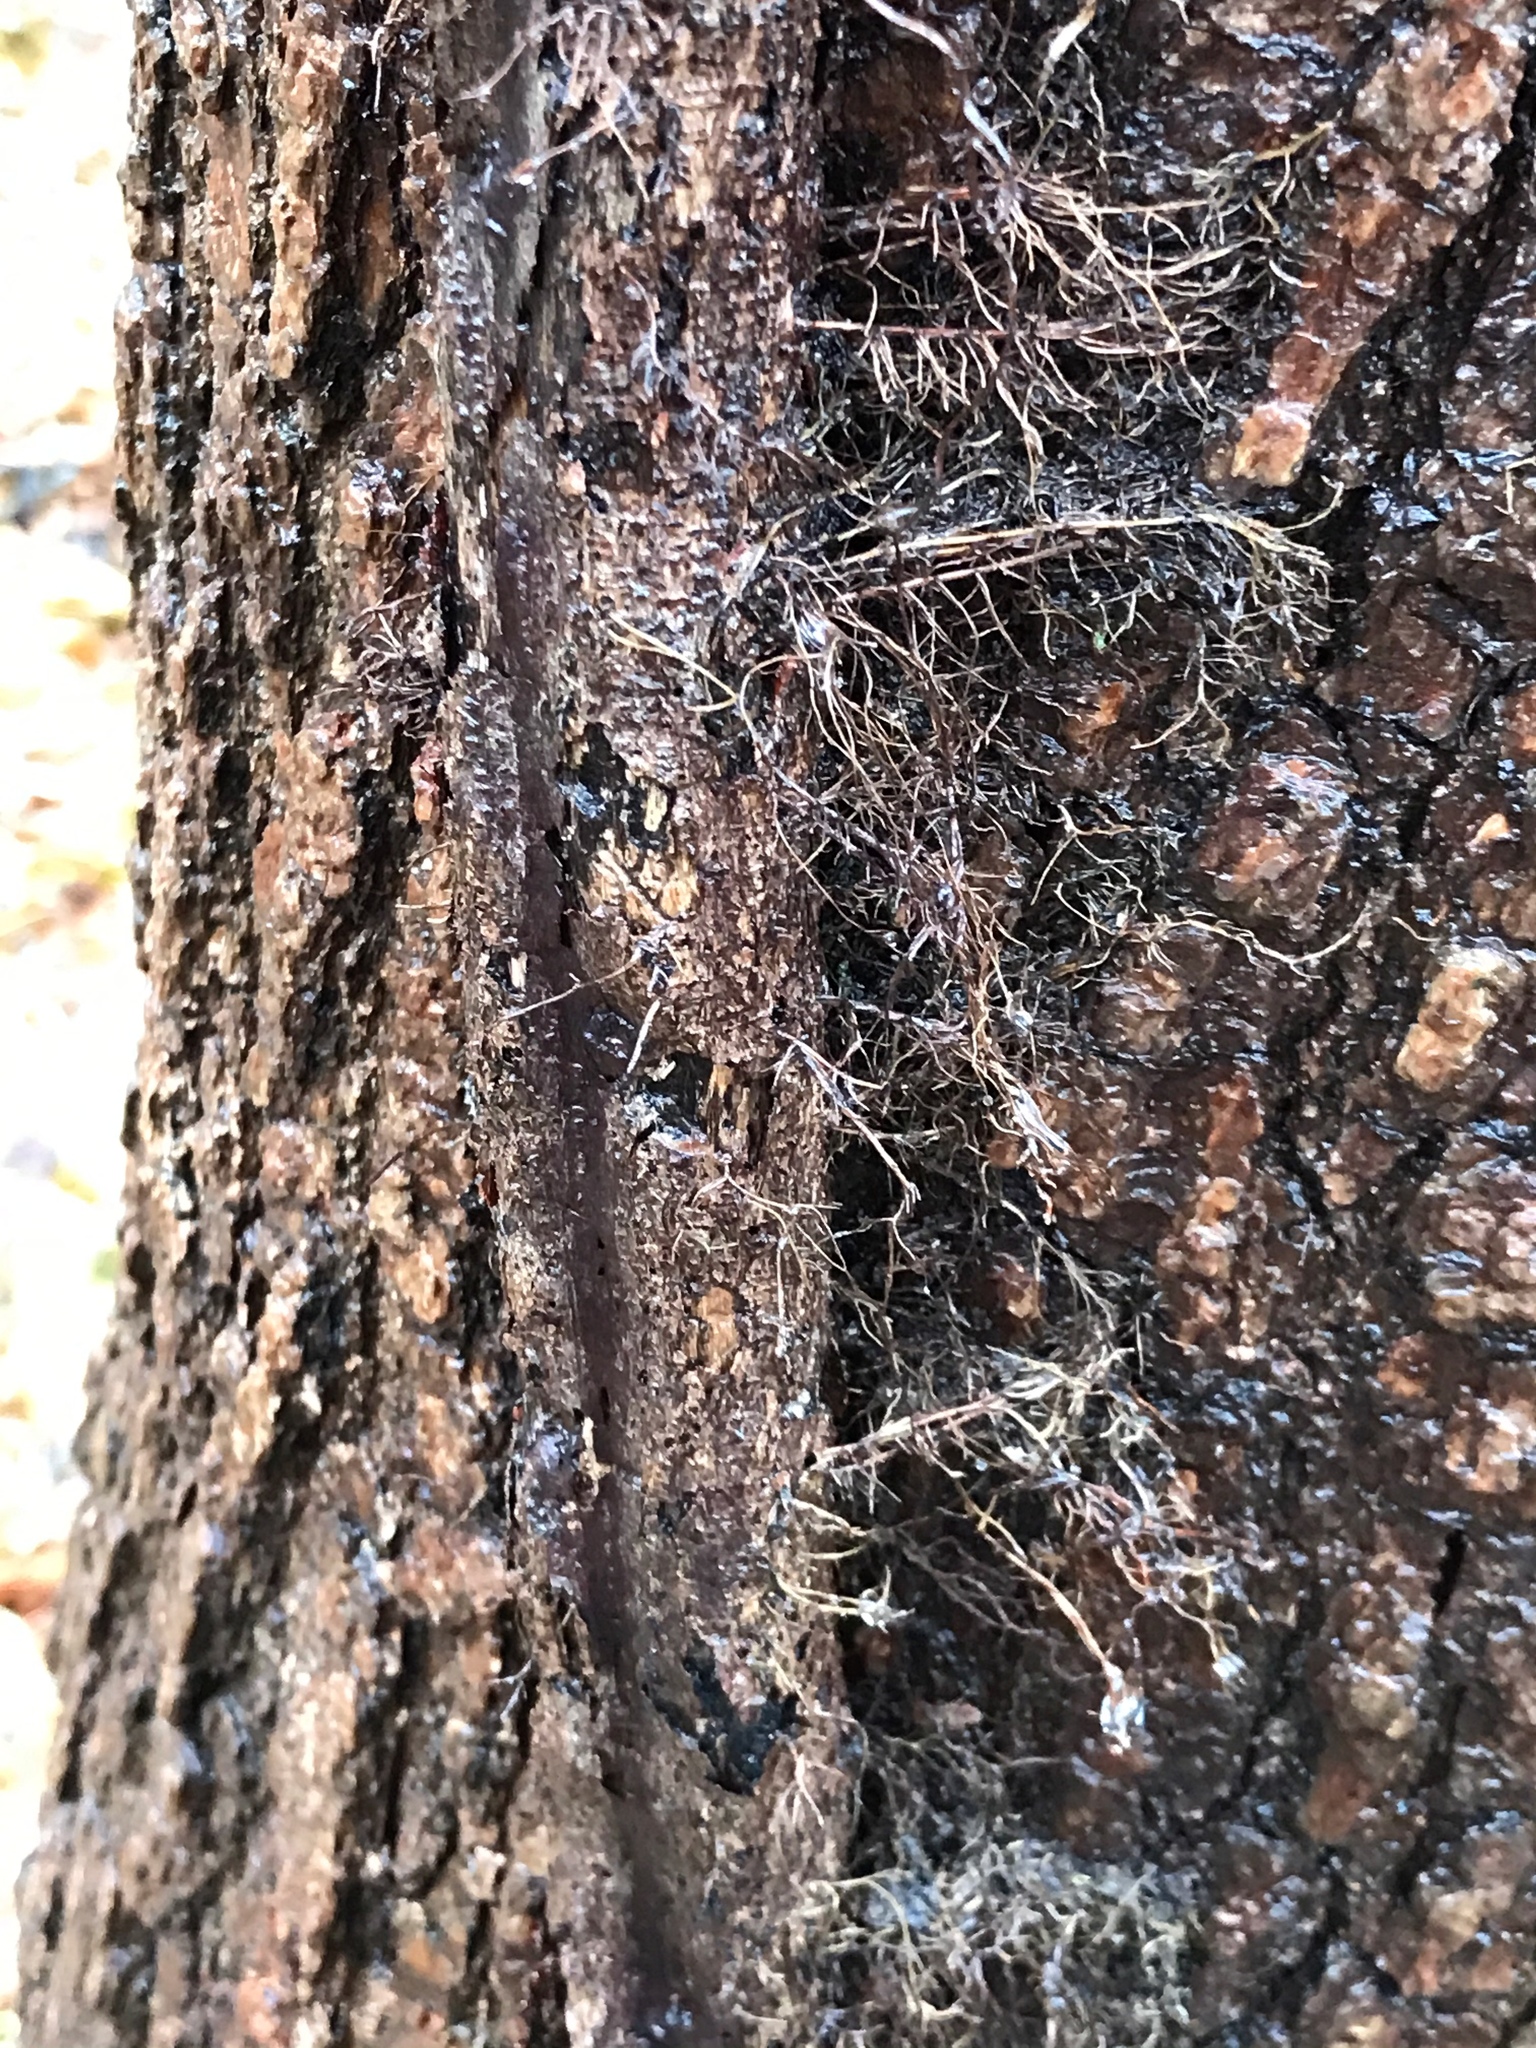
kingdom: Plantae
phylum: Tracheophyta
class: Magnoliopsida
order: Sapindales
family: Anacardiaceae
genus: Toxicodendron
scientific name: Toxicodendron radicans
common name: Poison ivy
